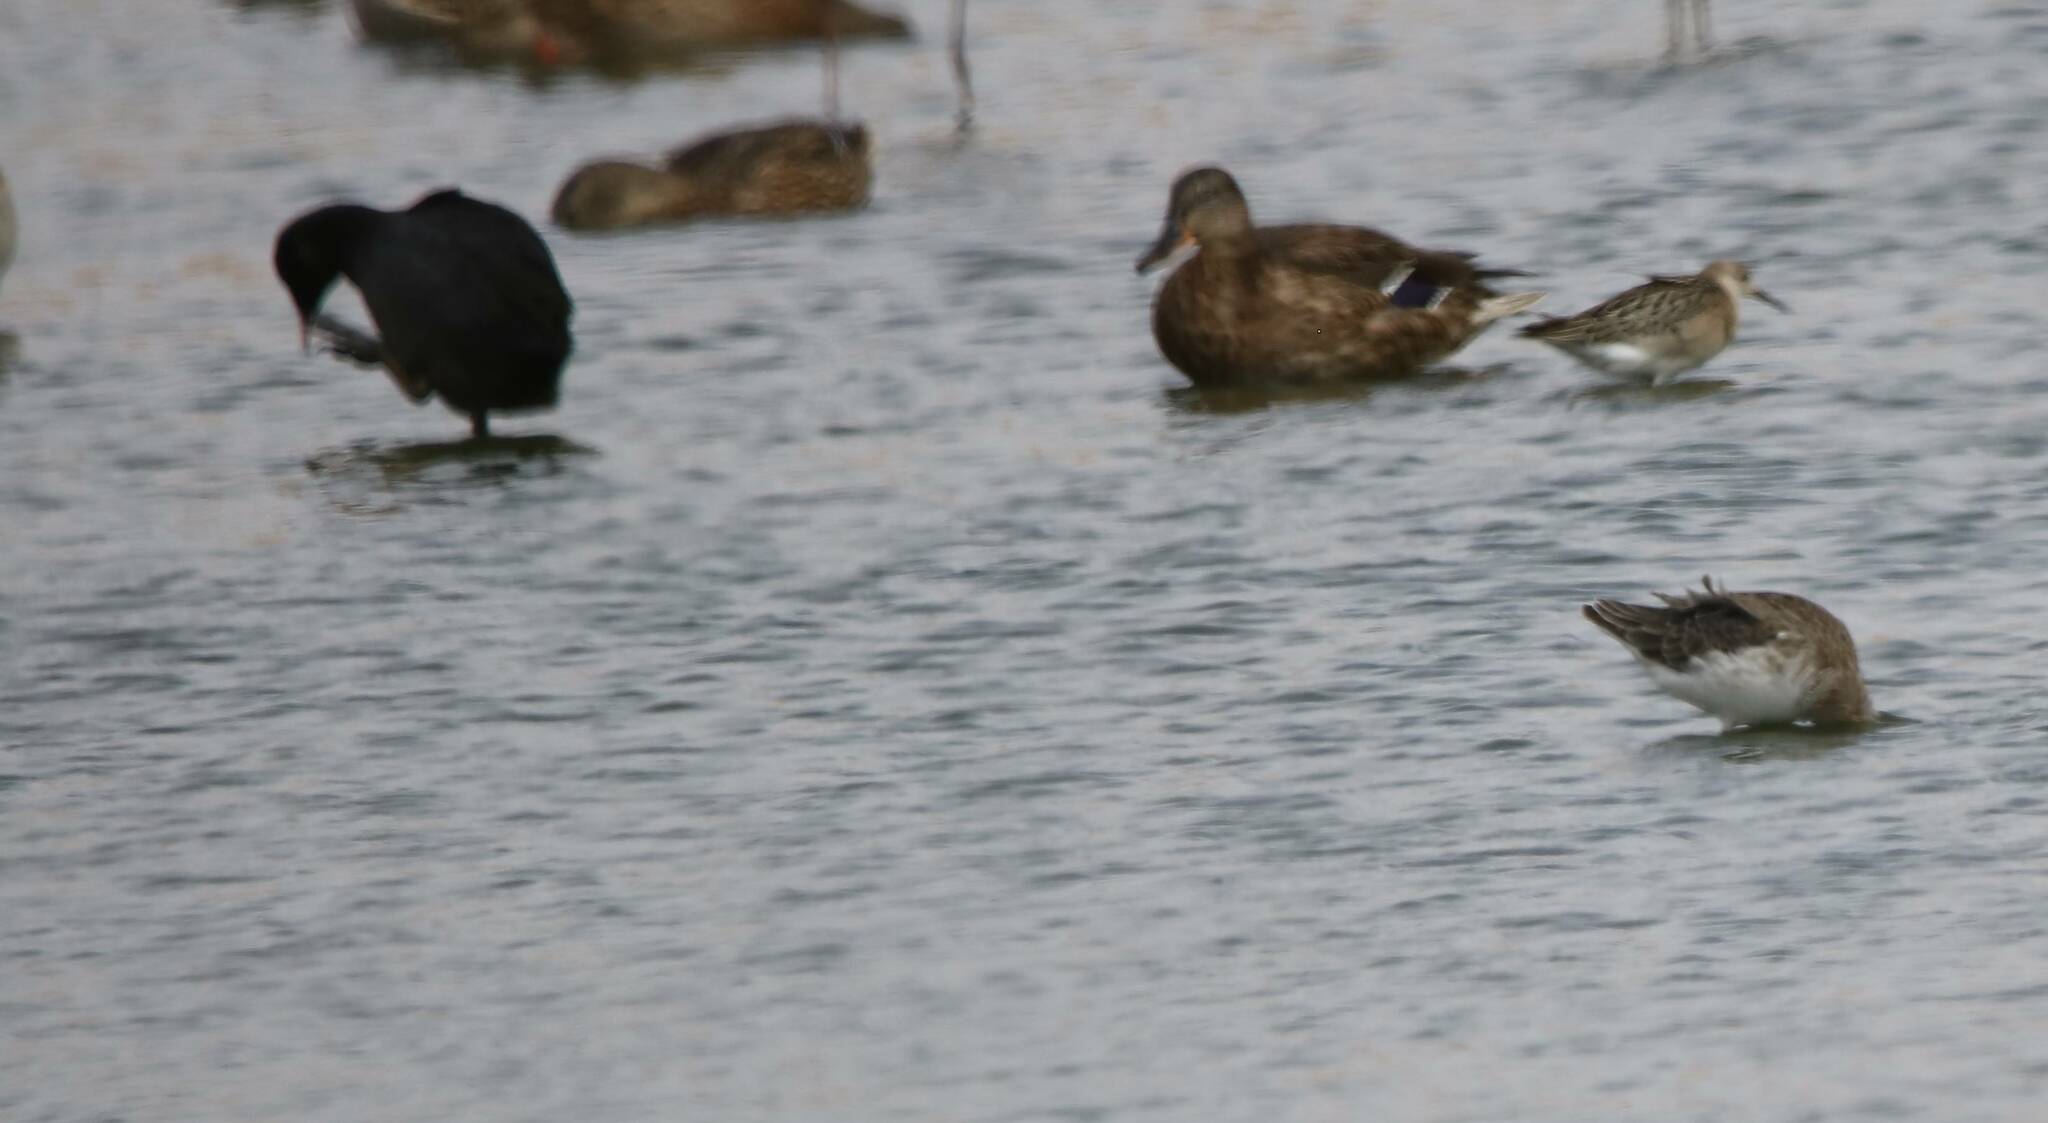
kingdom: Animalia
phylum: Chordata
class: Aves
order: Anseriformes
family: Anatidae
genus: Anas
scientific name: Anas platyrhynchos
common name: Mallard
